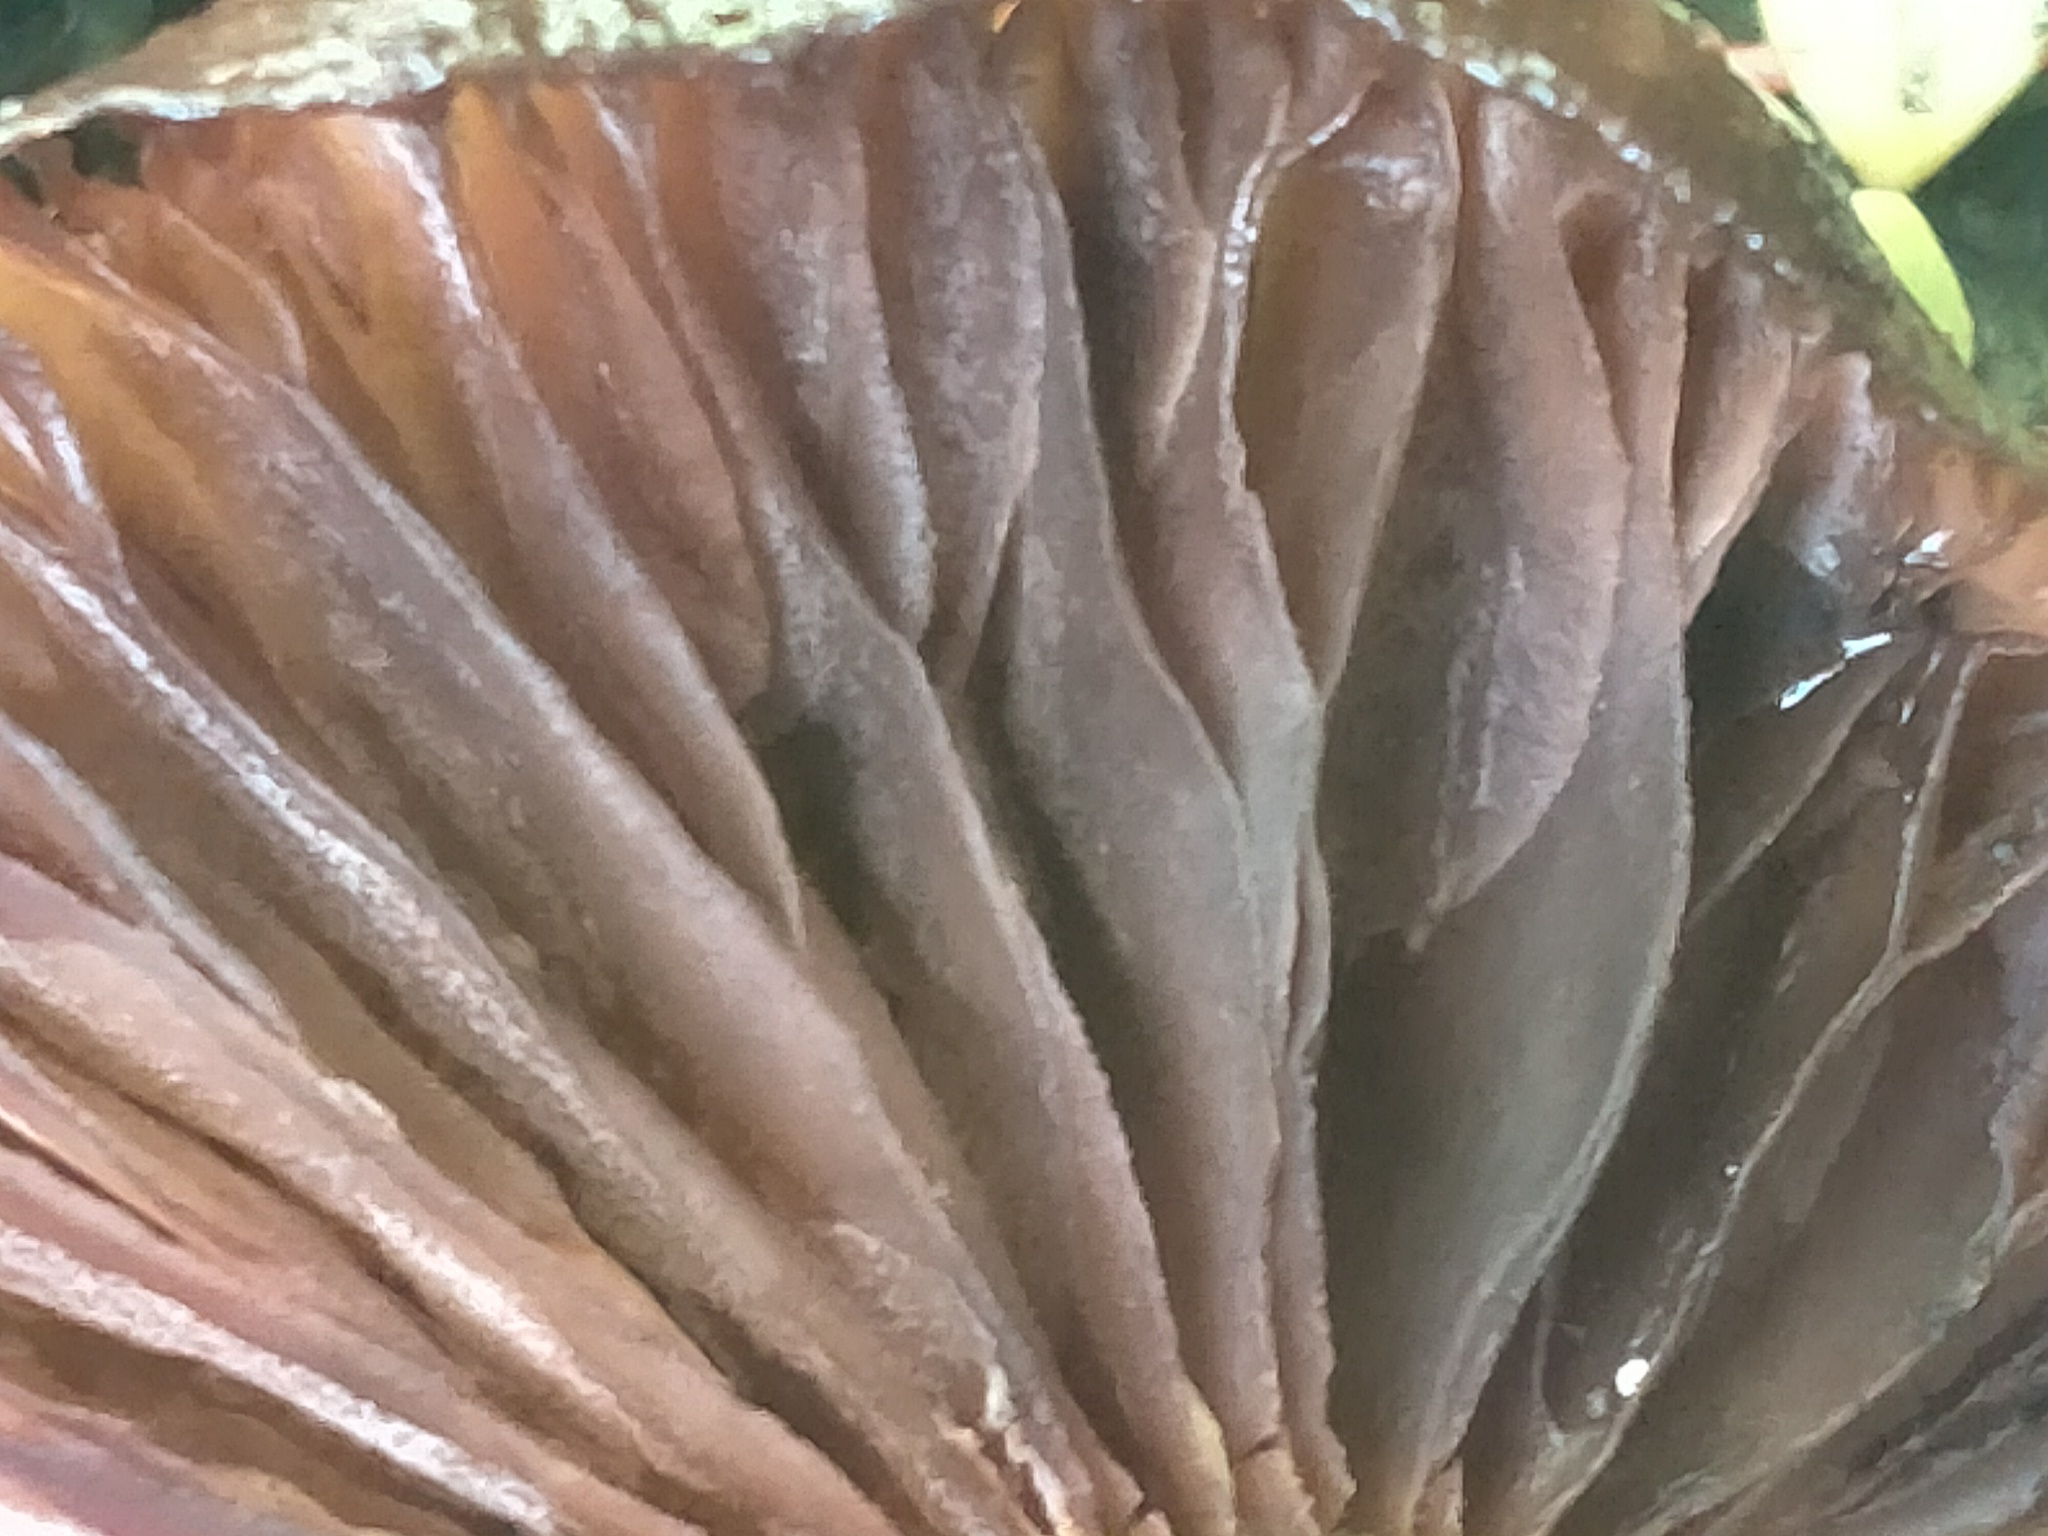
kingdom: Fungi
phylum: Basidiomycota
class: Agaricomycetes
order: Agaricales
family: Physalacriaceae
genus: Armillaria
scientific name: Armillaria novae-zelandiae
